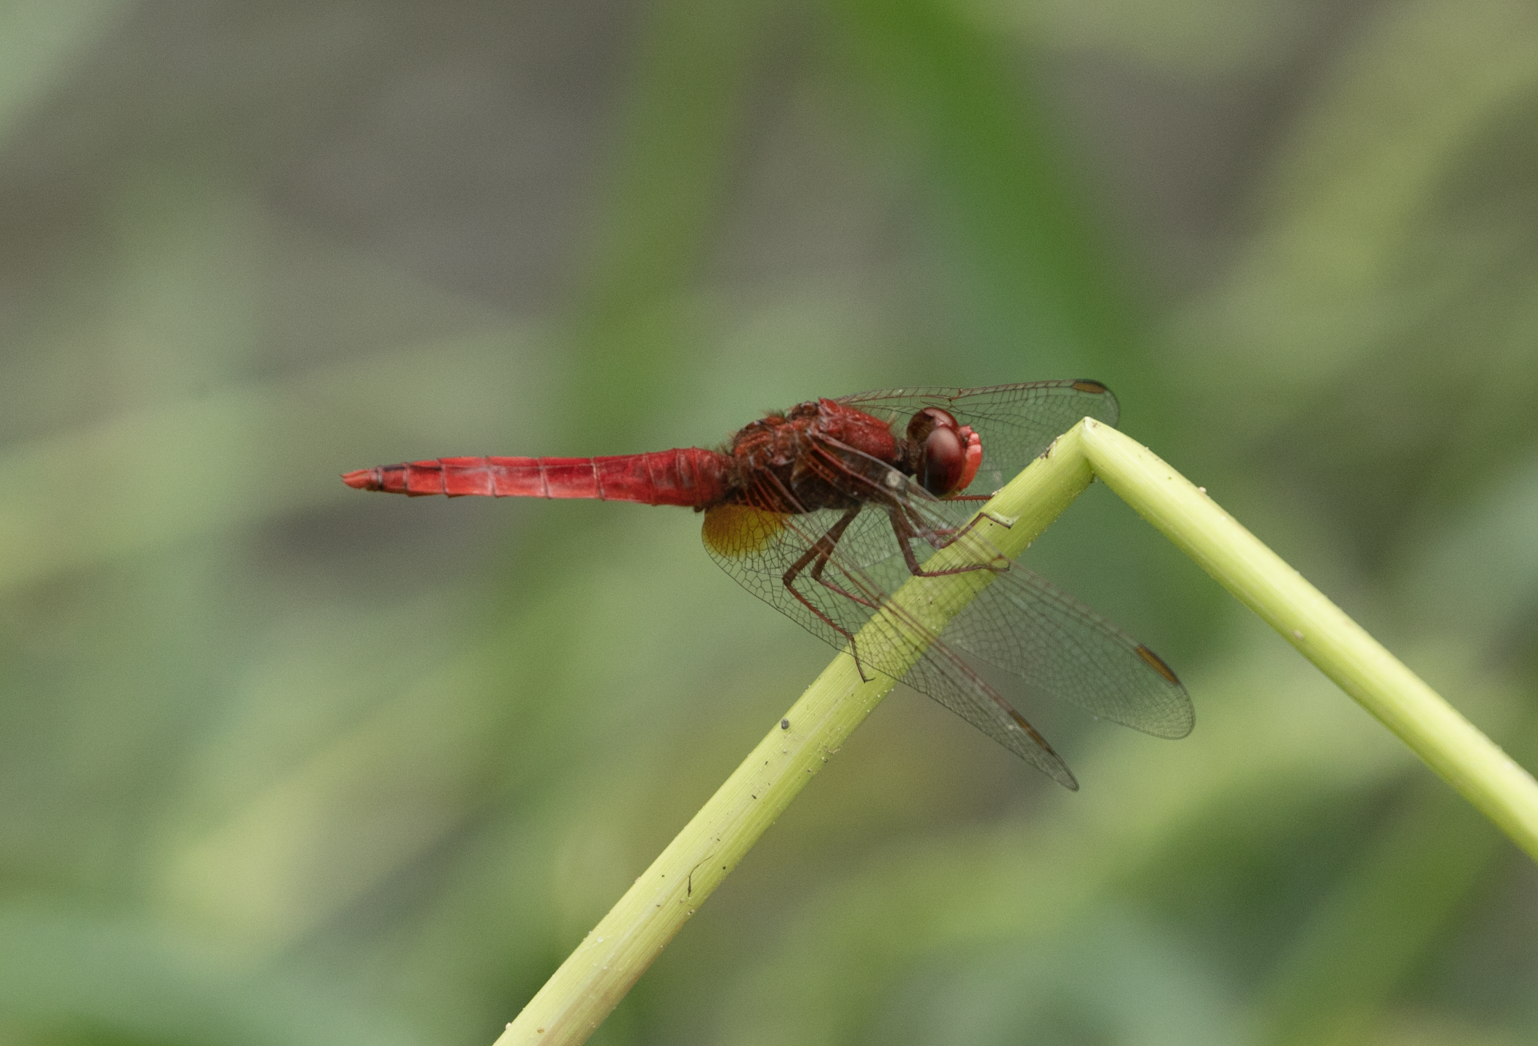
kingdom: Animalia
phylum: Arthropoda
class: Insecta
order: Odonata
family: Libellulidae
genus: Crocothemis
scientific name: Crocothemis erythraea
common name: Scarlet dragonfly
